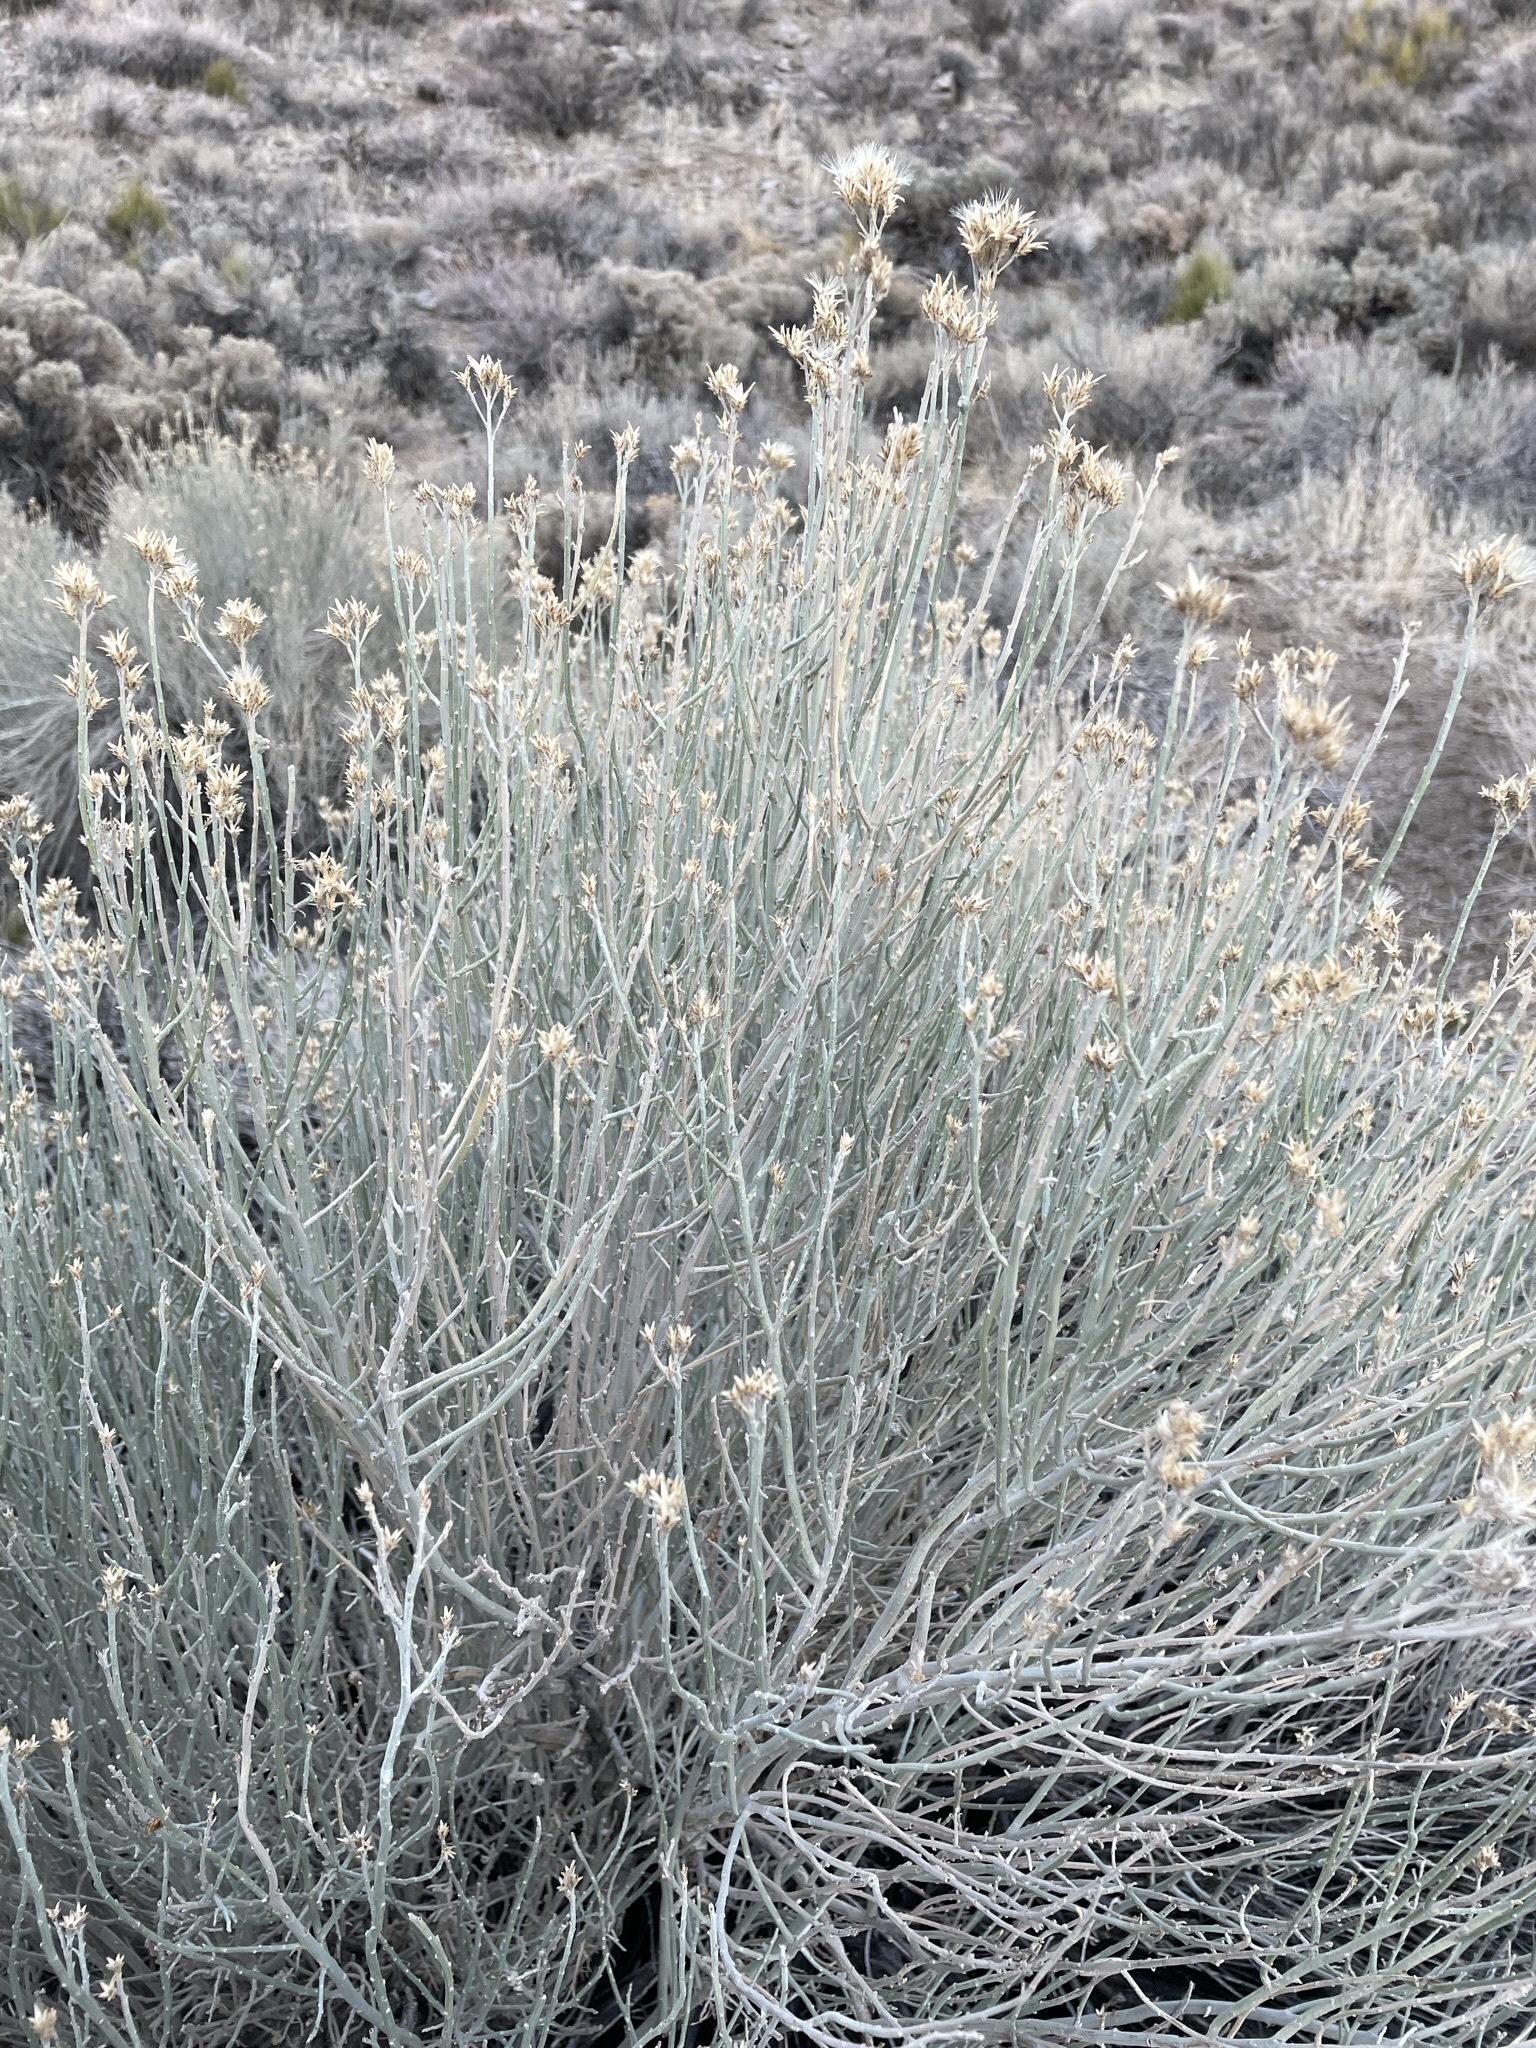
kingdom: Plantae
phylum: Tracheophyta
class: Magnoliopsida
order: Asterales
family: Asteraceae
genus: Ericameria
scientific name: Ericameria nauseosa
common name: Rubber rabbitbrush
